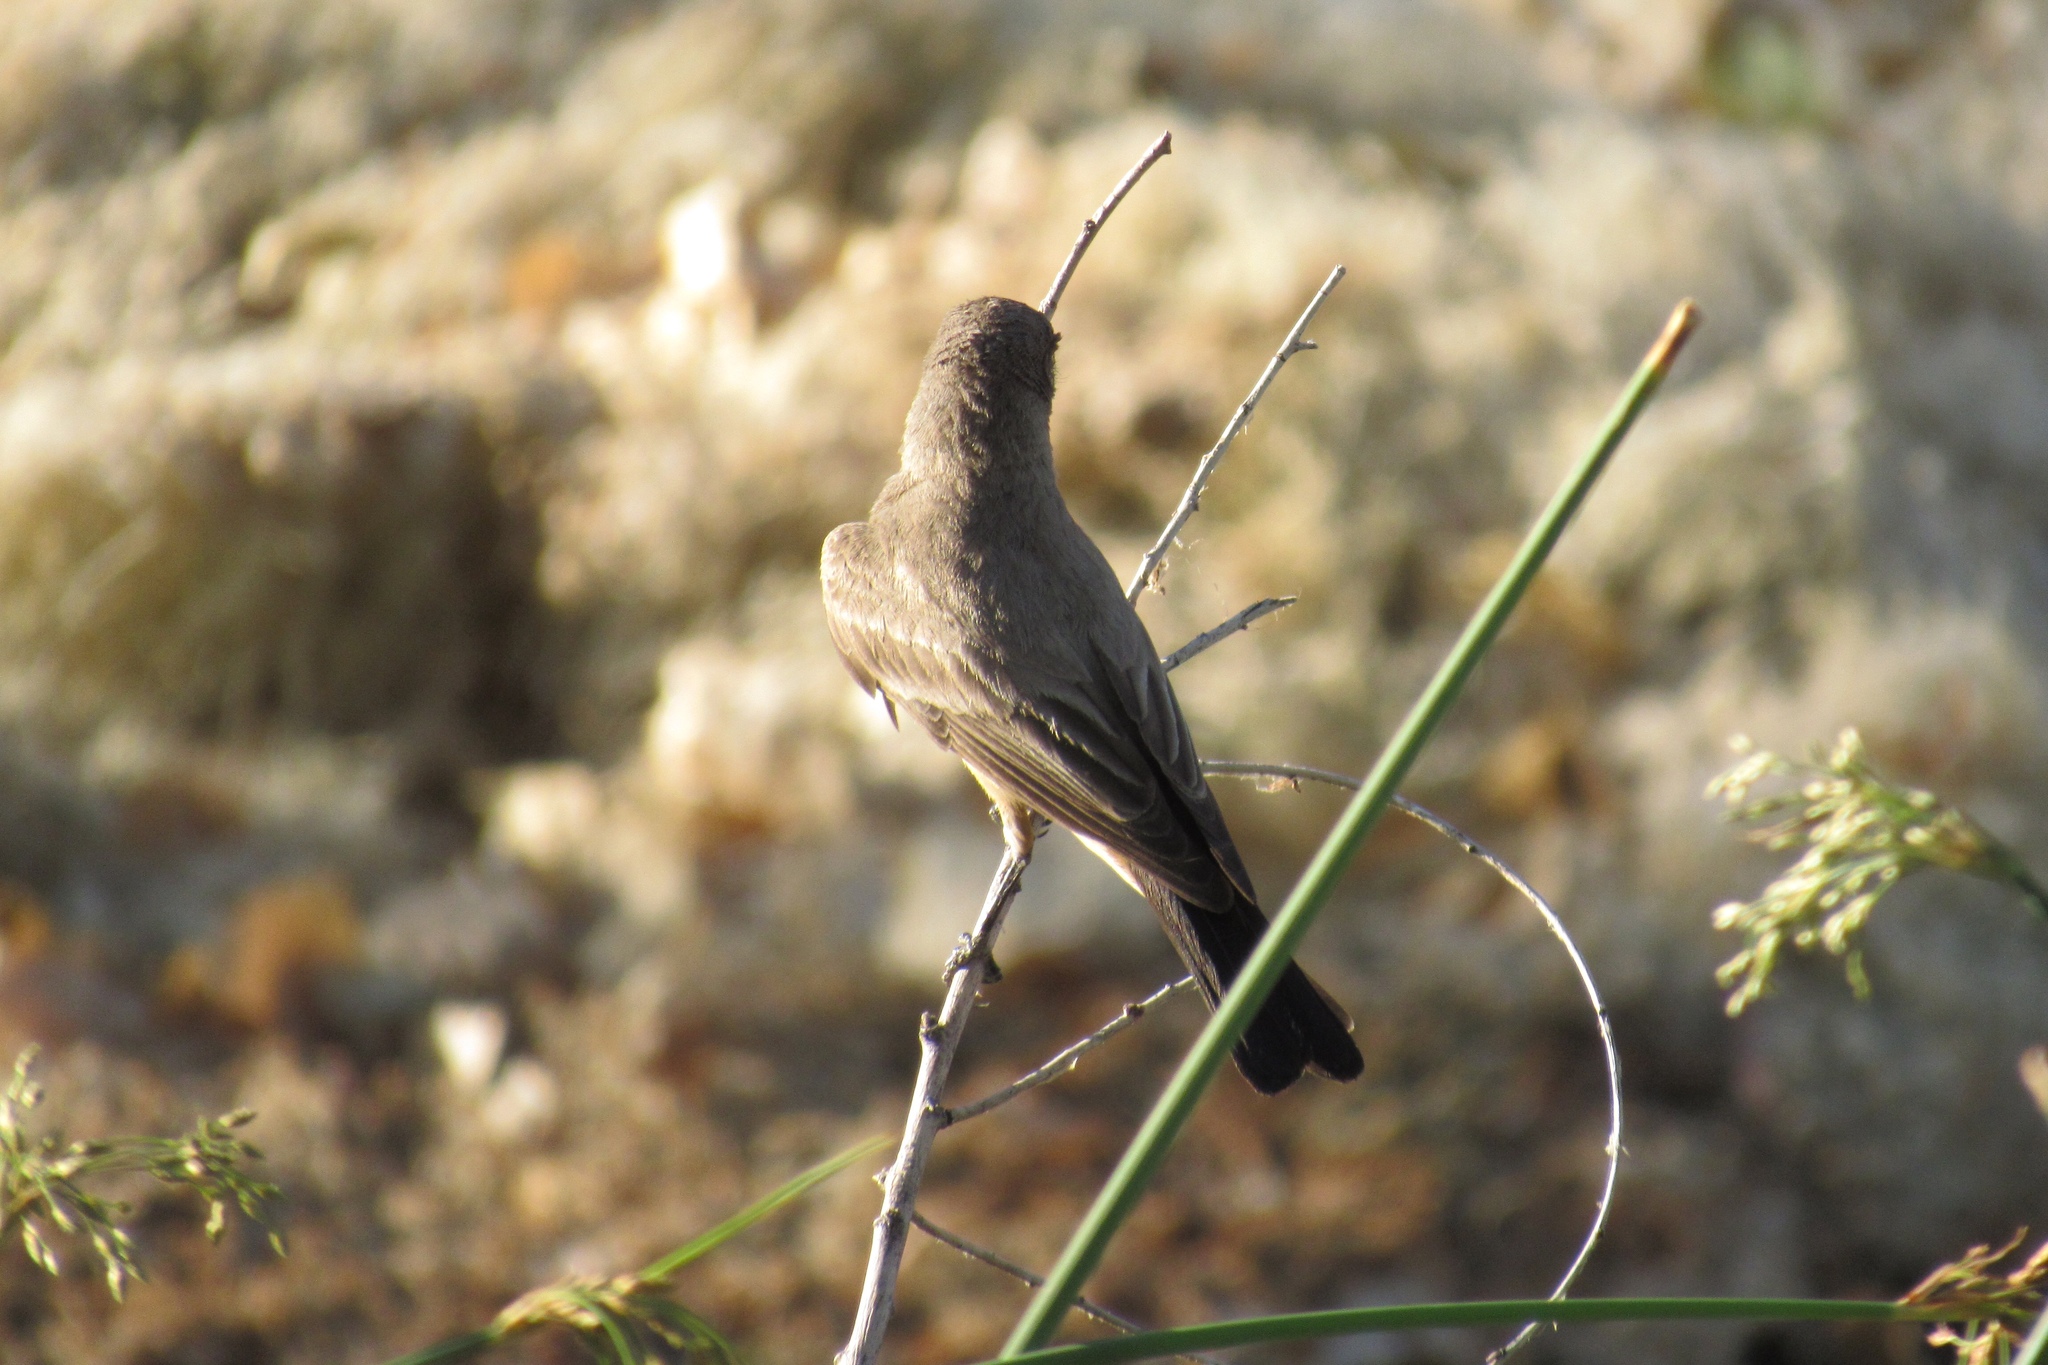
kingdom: Animalia
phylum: Chordata
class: Aves
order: Passeriformes
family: Tyrannidae
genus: Sayornis
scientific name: Sayornis saya
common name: Say's phoebe
